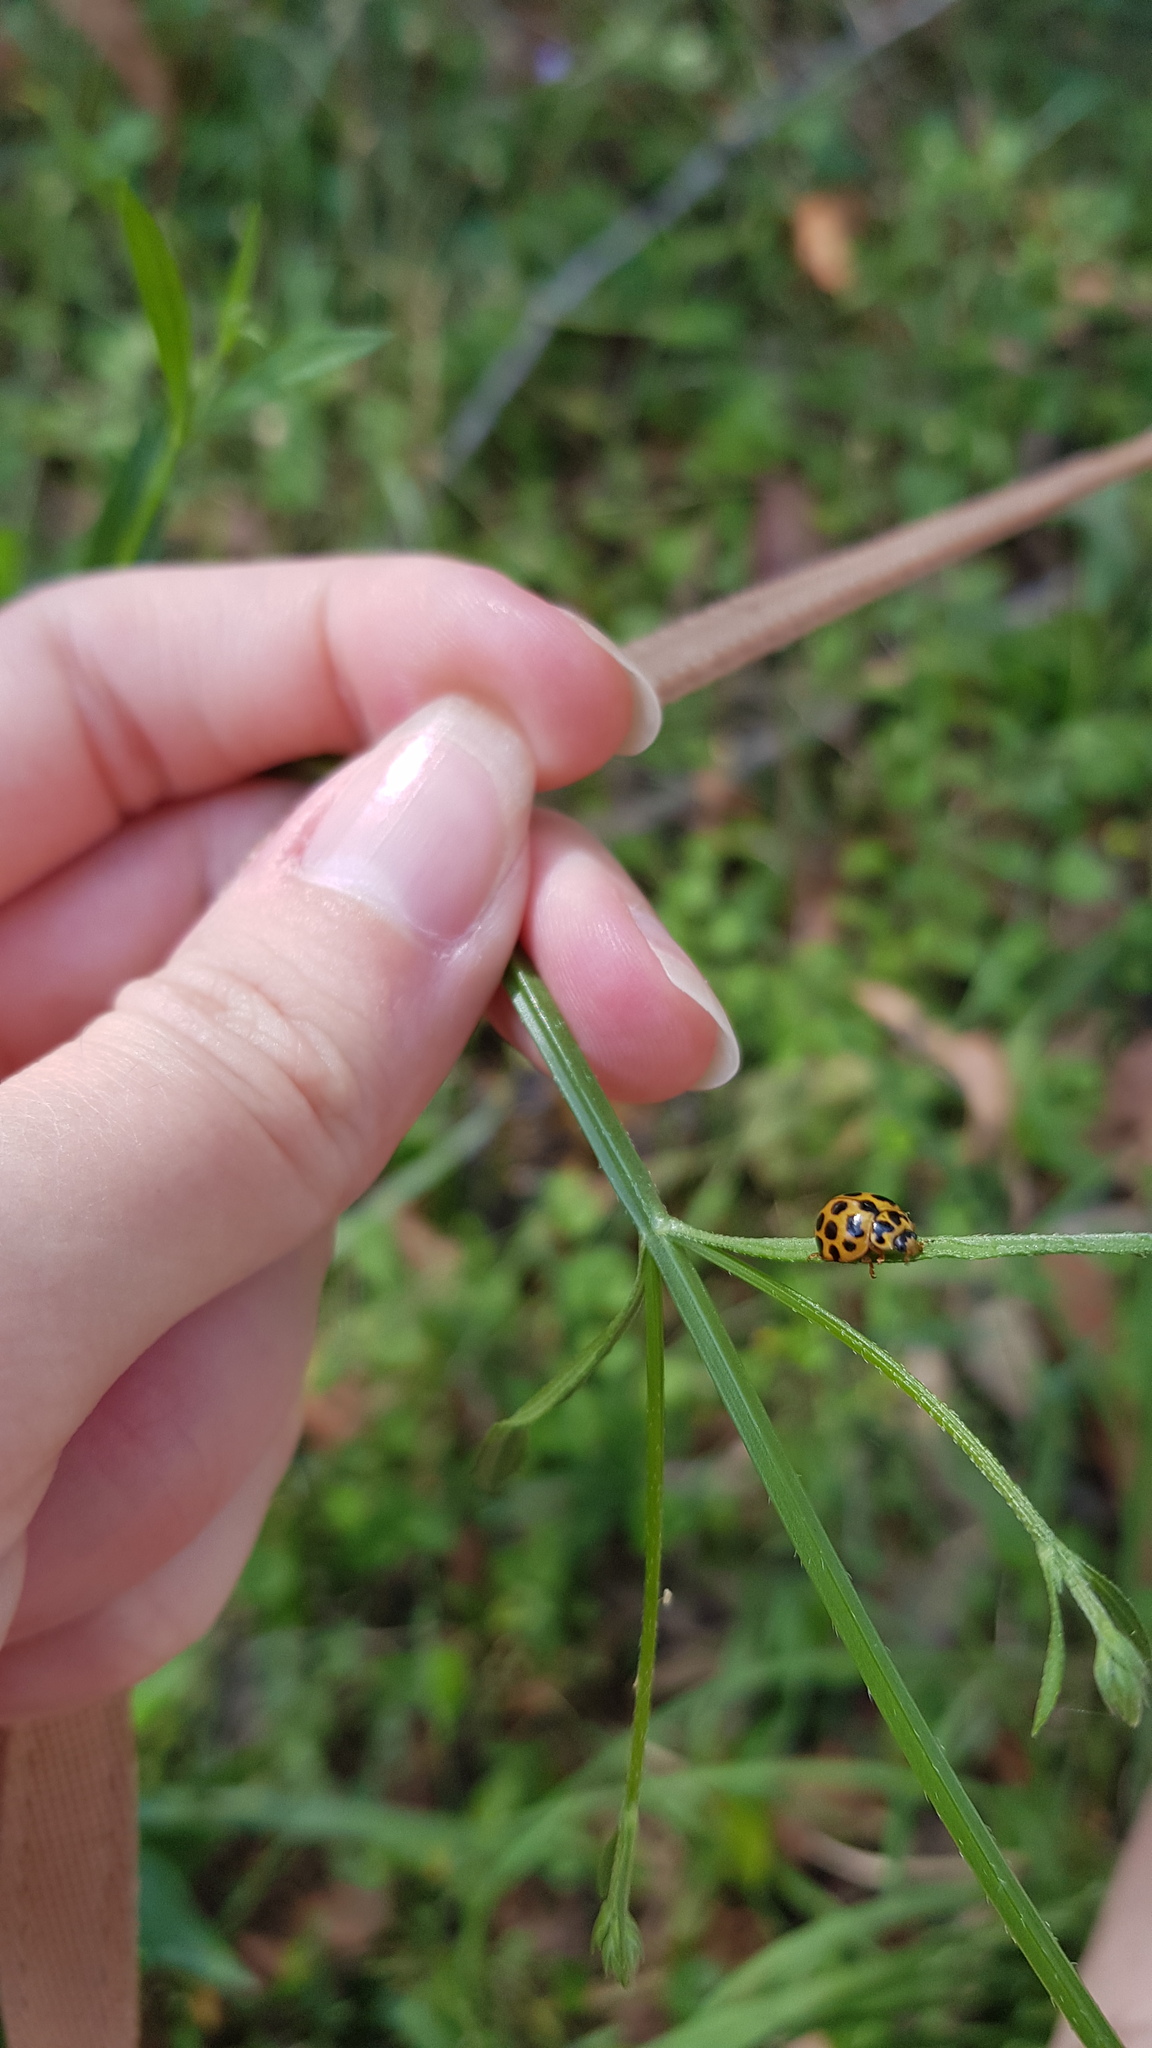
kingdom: Animalia
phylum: Arthropoda
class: Insecta
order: Coleoptera
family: Coccinellidae
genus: Harmonia
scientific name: Harmonia conformis
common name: Common spotted ladybird beetle
